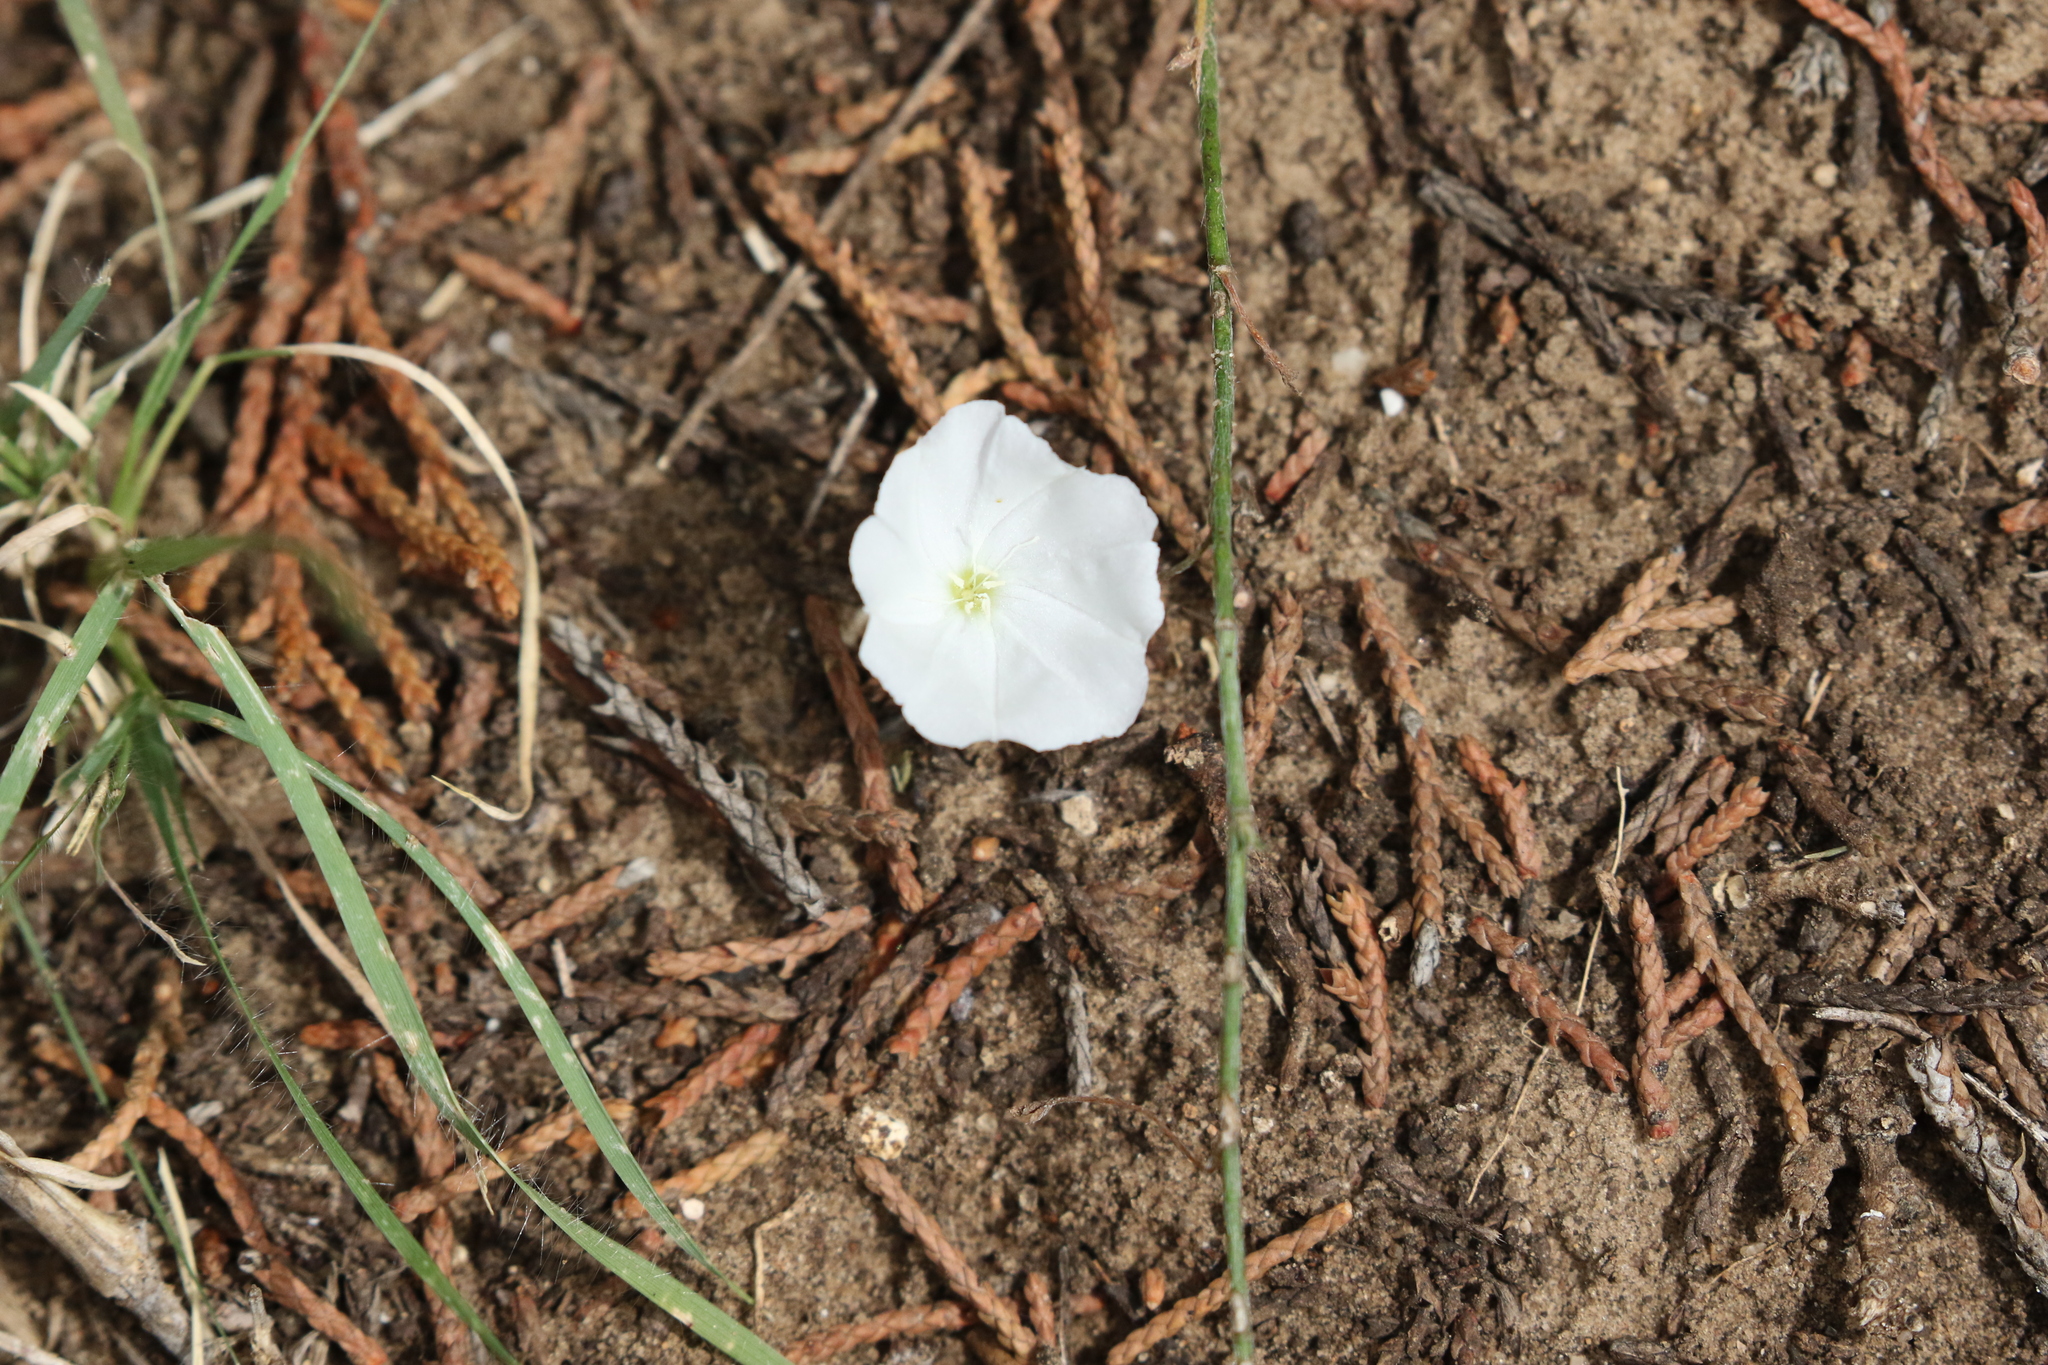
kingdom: Plantae
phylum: Tracheophyta
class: Magnoliopsida
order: Solanales
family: Convolvulaceae
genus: Evolvulus
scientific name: Evolvulus sericeus
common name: Blue dots
